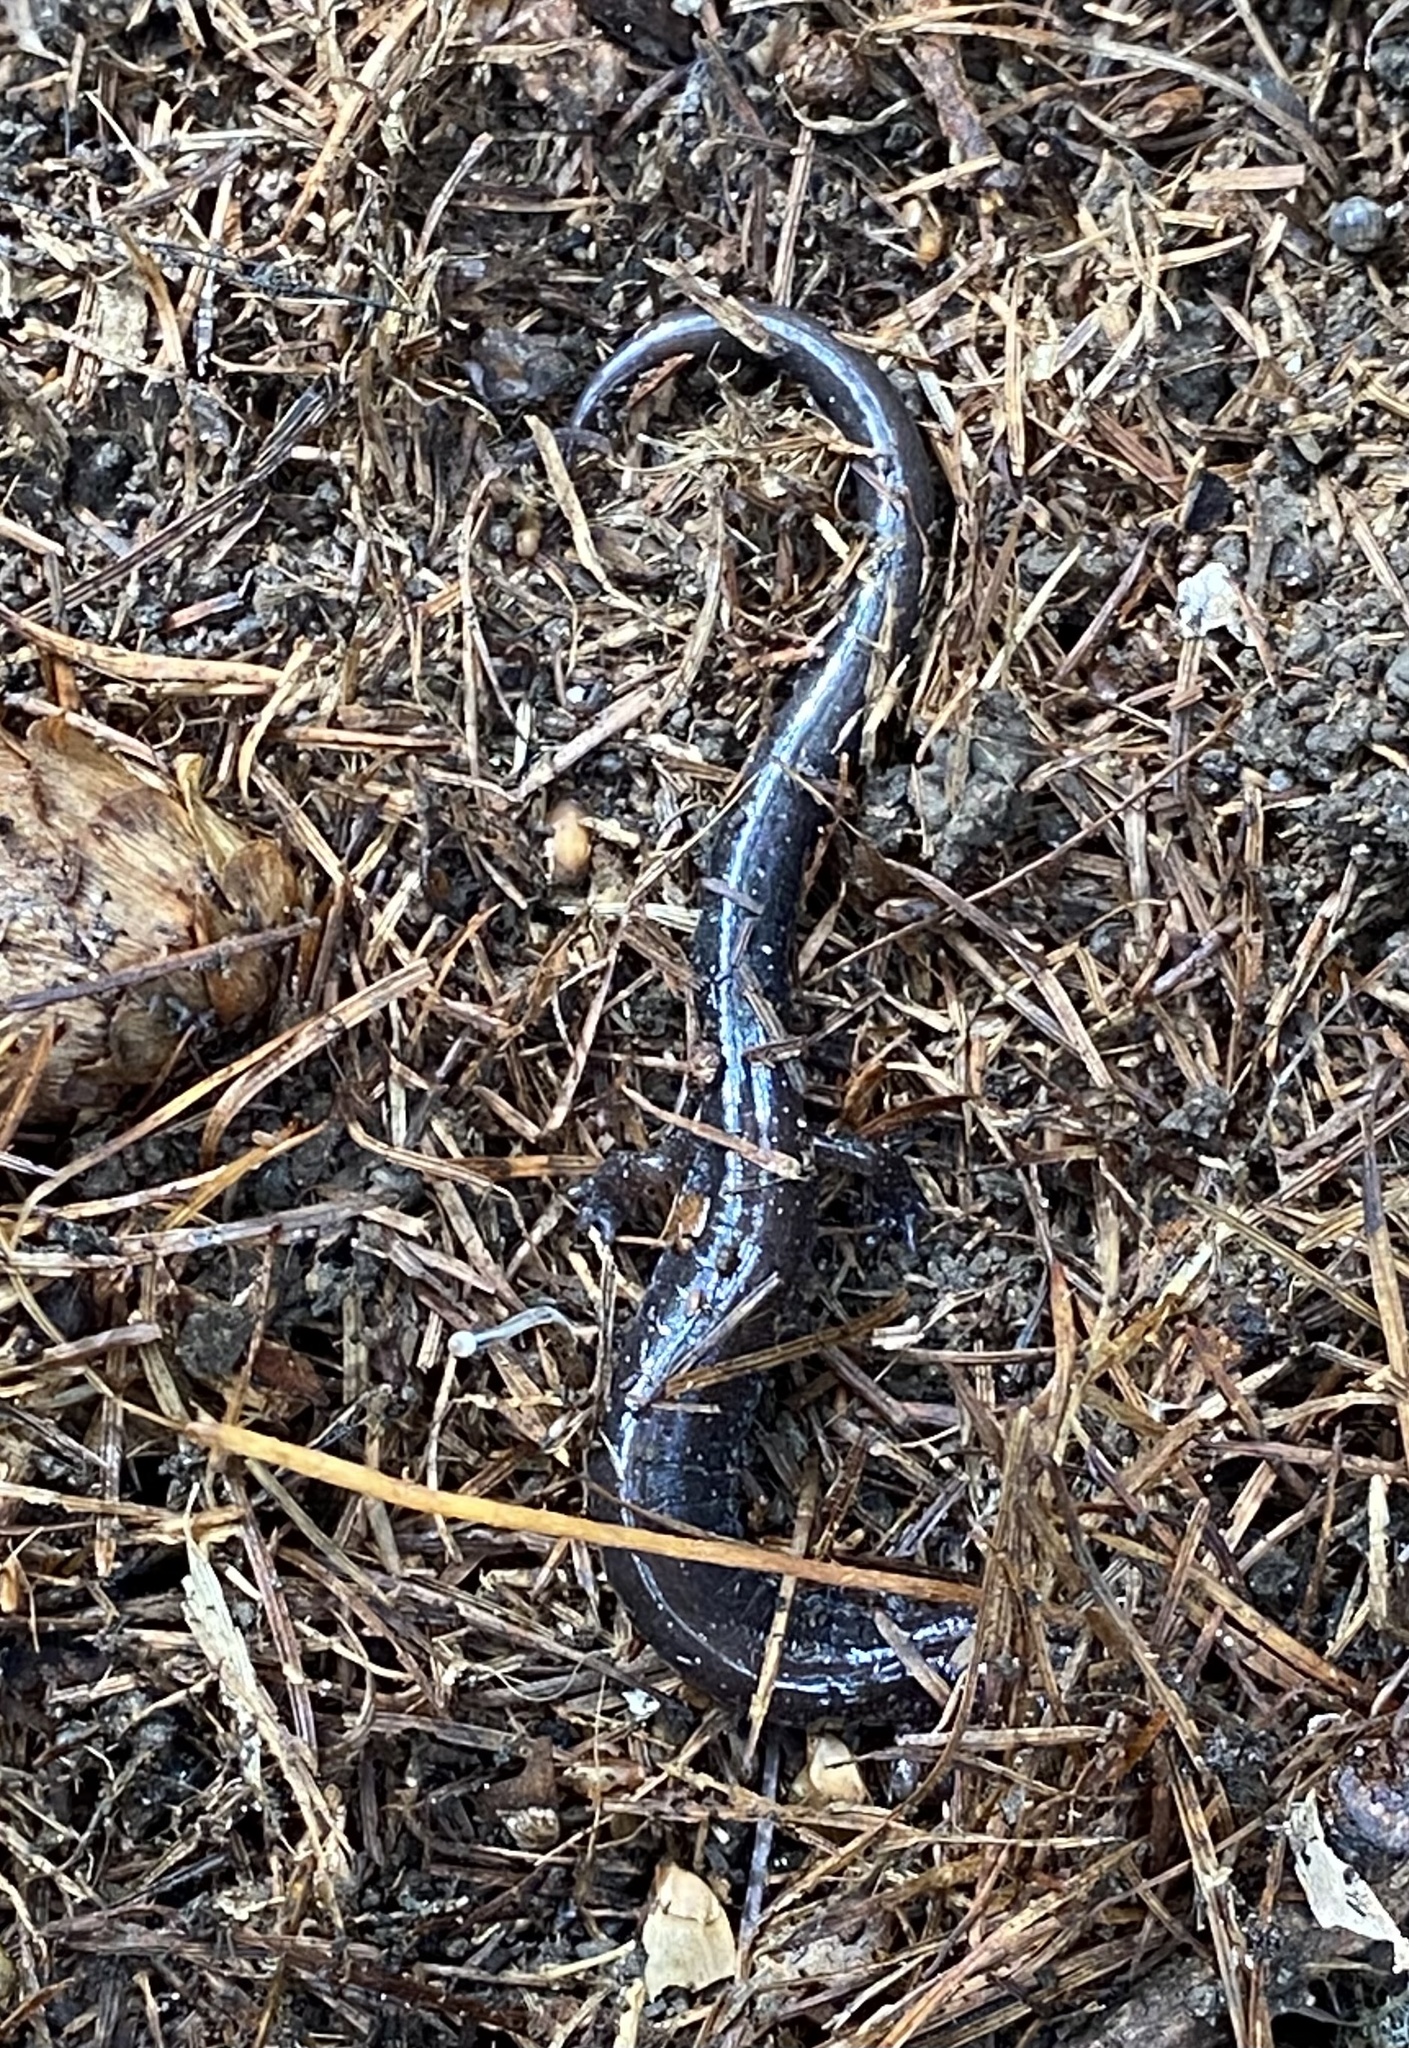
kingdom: Animalia
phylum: Chordata
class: Amphibia
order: Caudata
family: Plethodontidae
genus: Plethodon
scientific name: Plethodon cinereus
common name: Redback salamander
